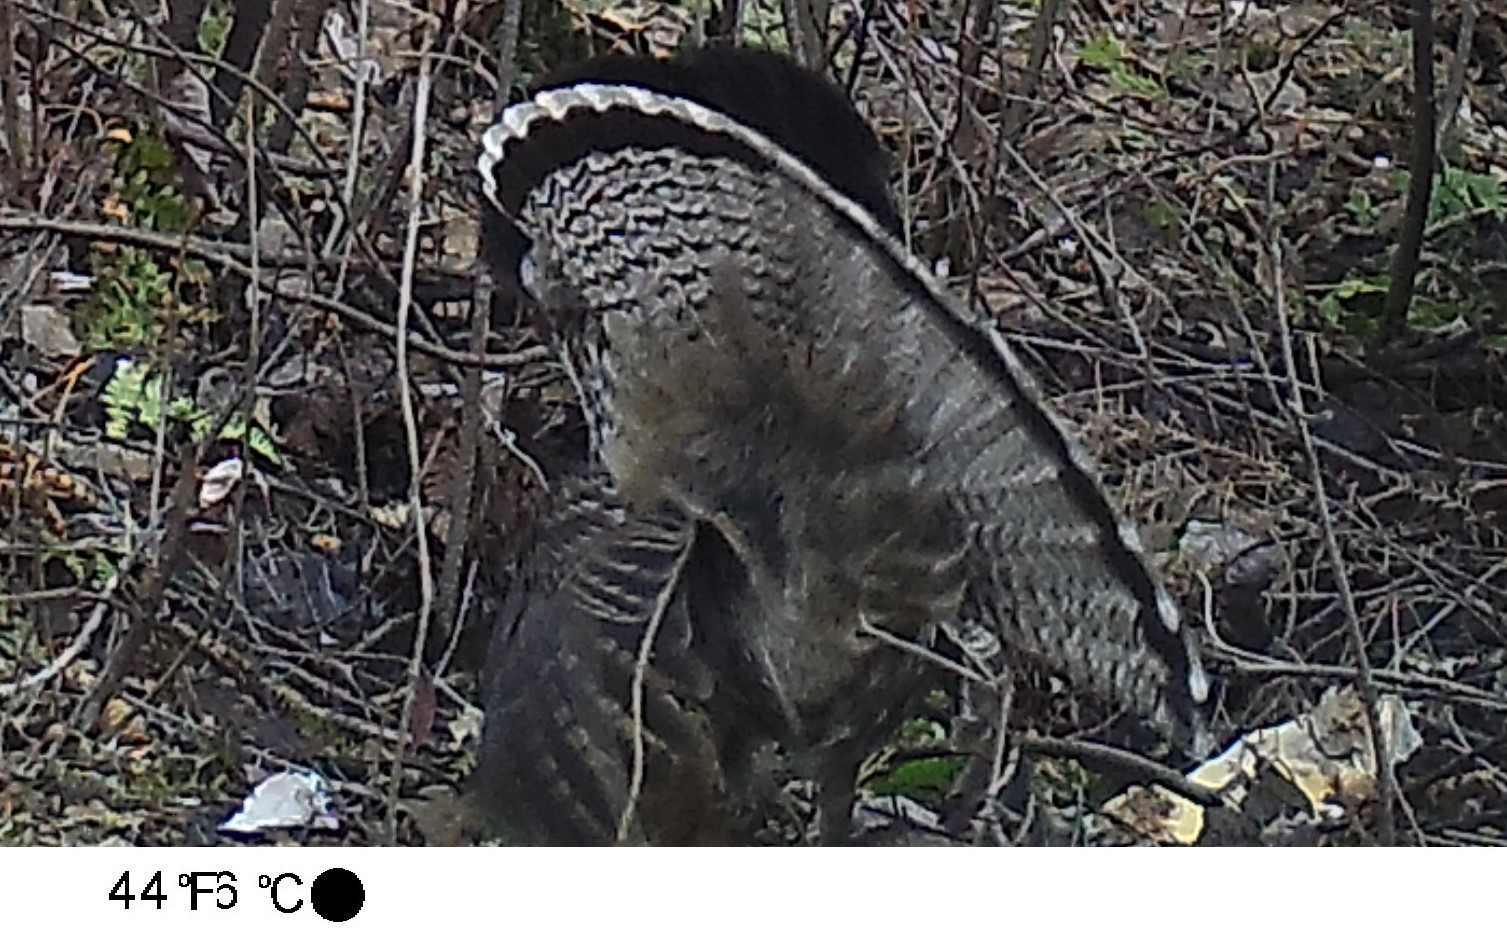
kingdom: Animalia
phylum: Chordata
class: Aves
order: Galliformes
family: Phasianidae
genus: Bonasa
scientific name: Bonasa umbellus
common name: Ruffed grouse
